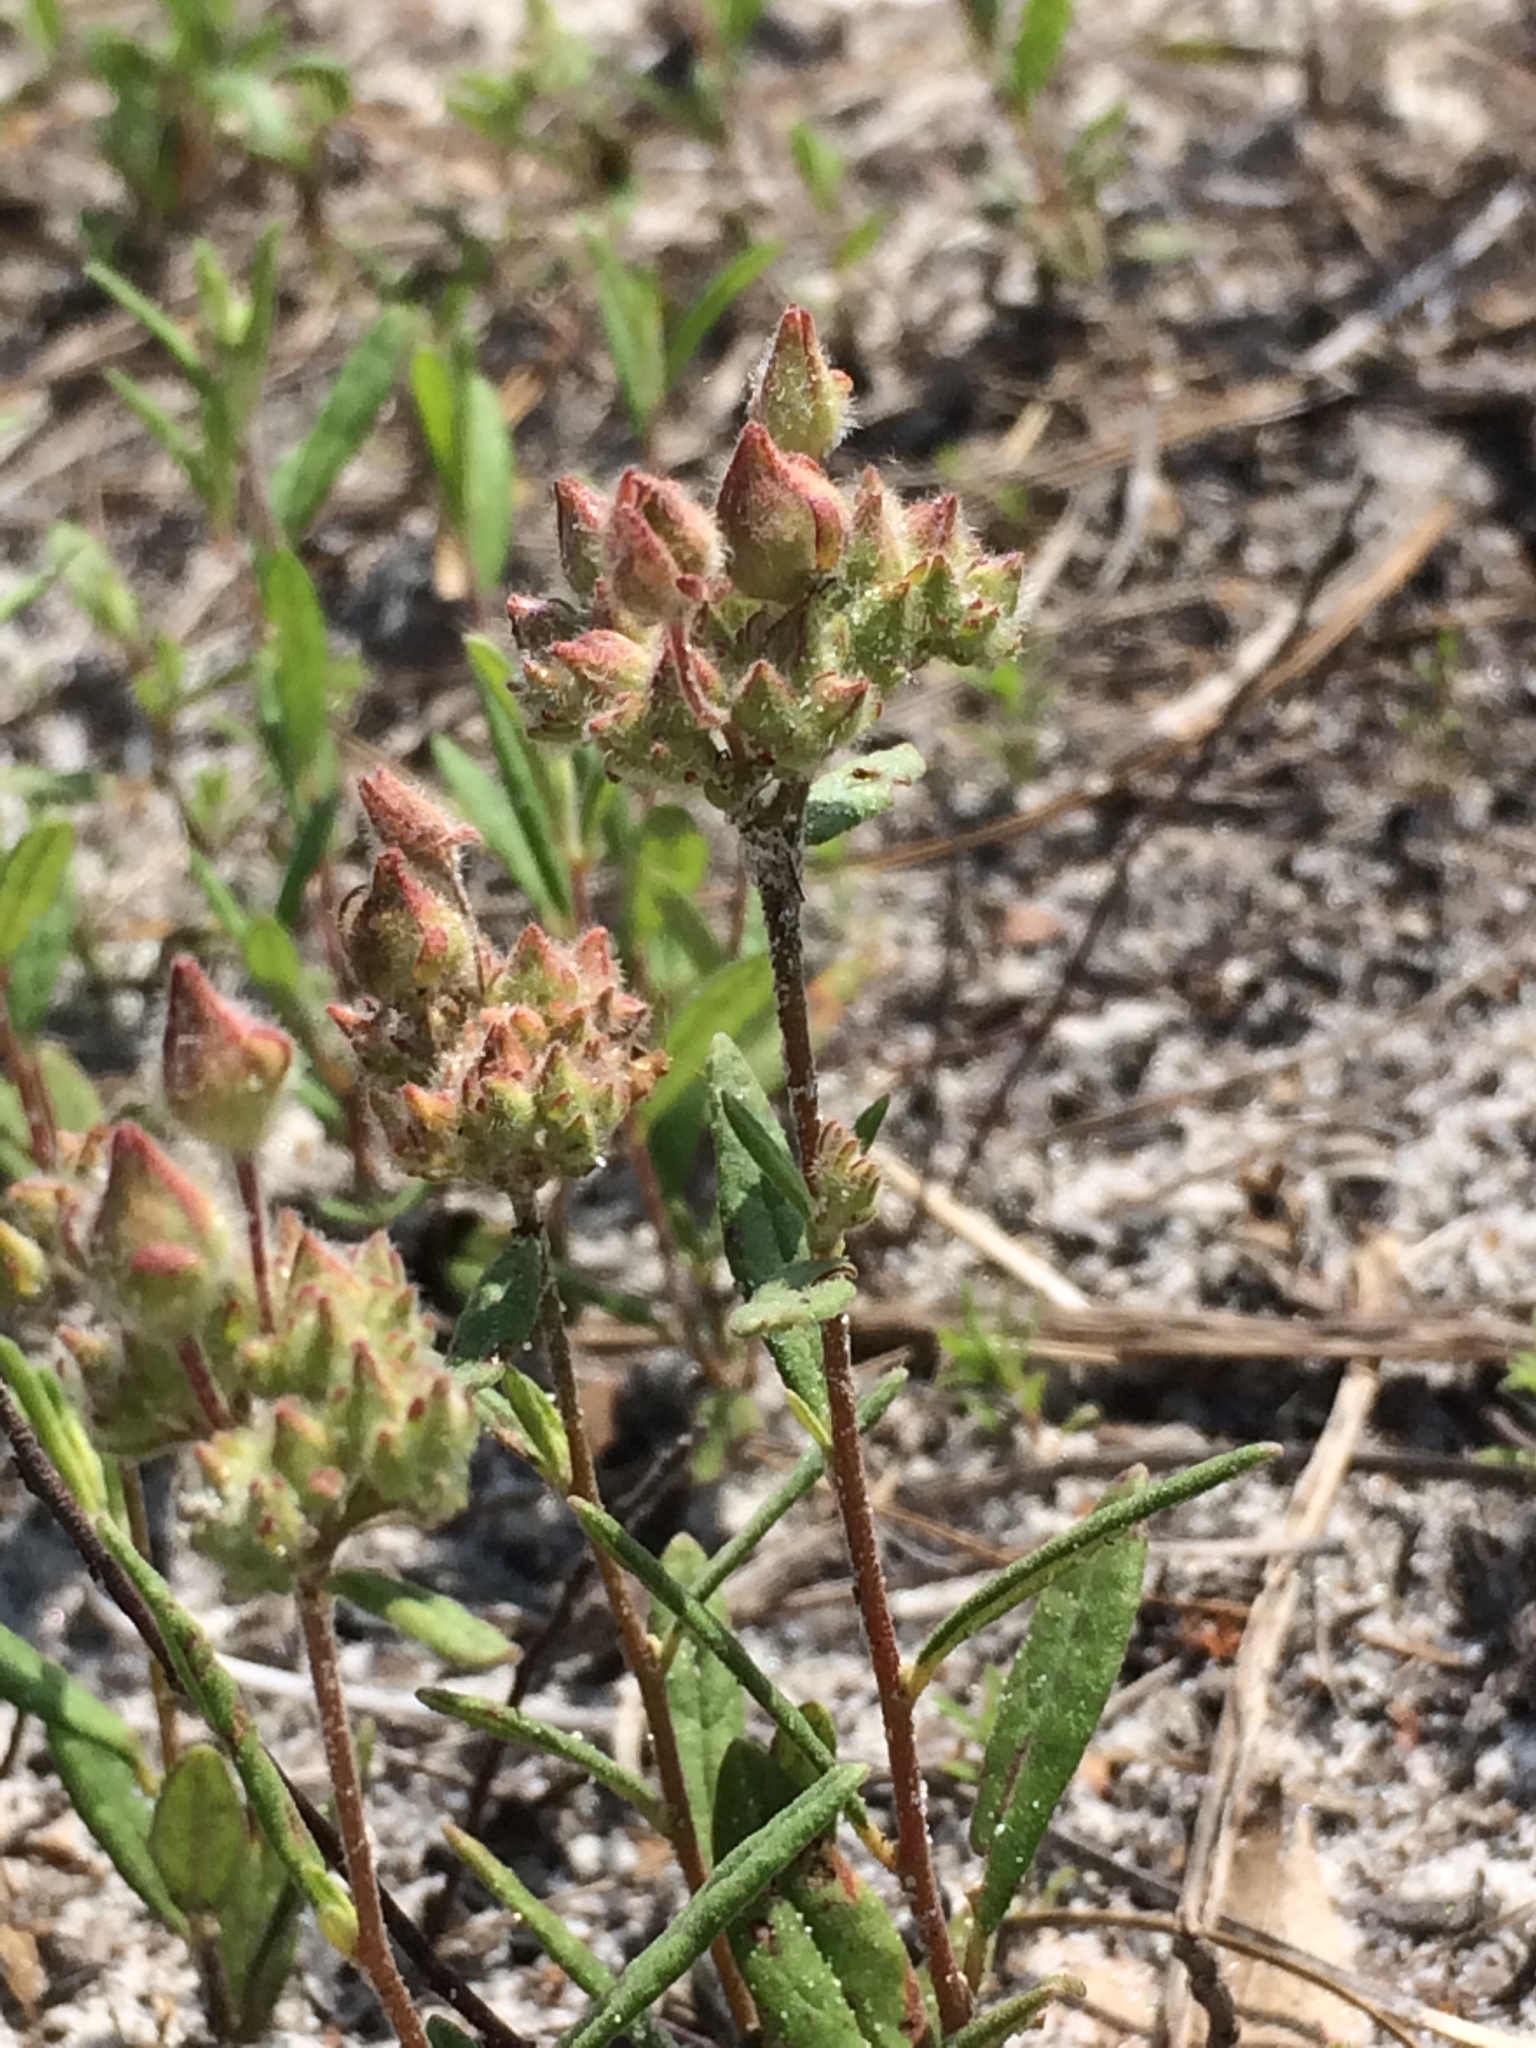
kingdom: Plantae
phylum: Tracheophyta
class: Magnoliopsida
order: Malvales
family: Cistaceae
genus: Crocanthemum
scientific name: Crocanthemum corymbosum
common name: Pinebarren sun-rose
